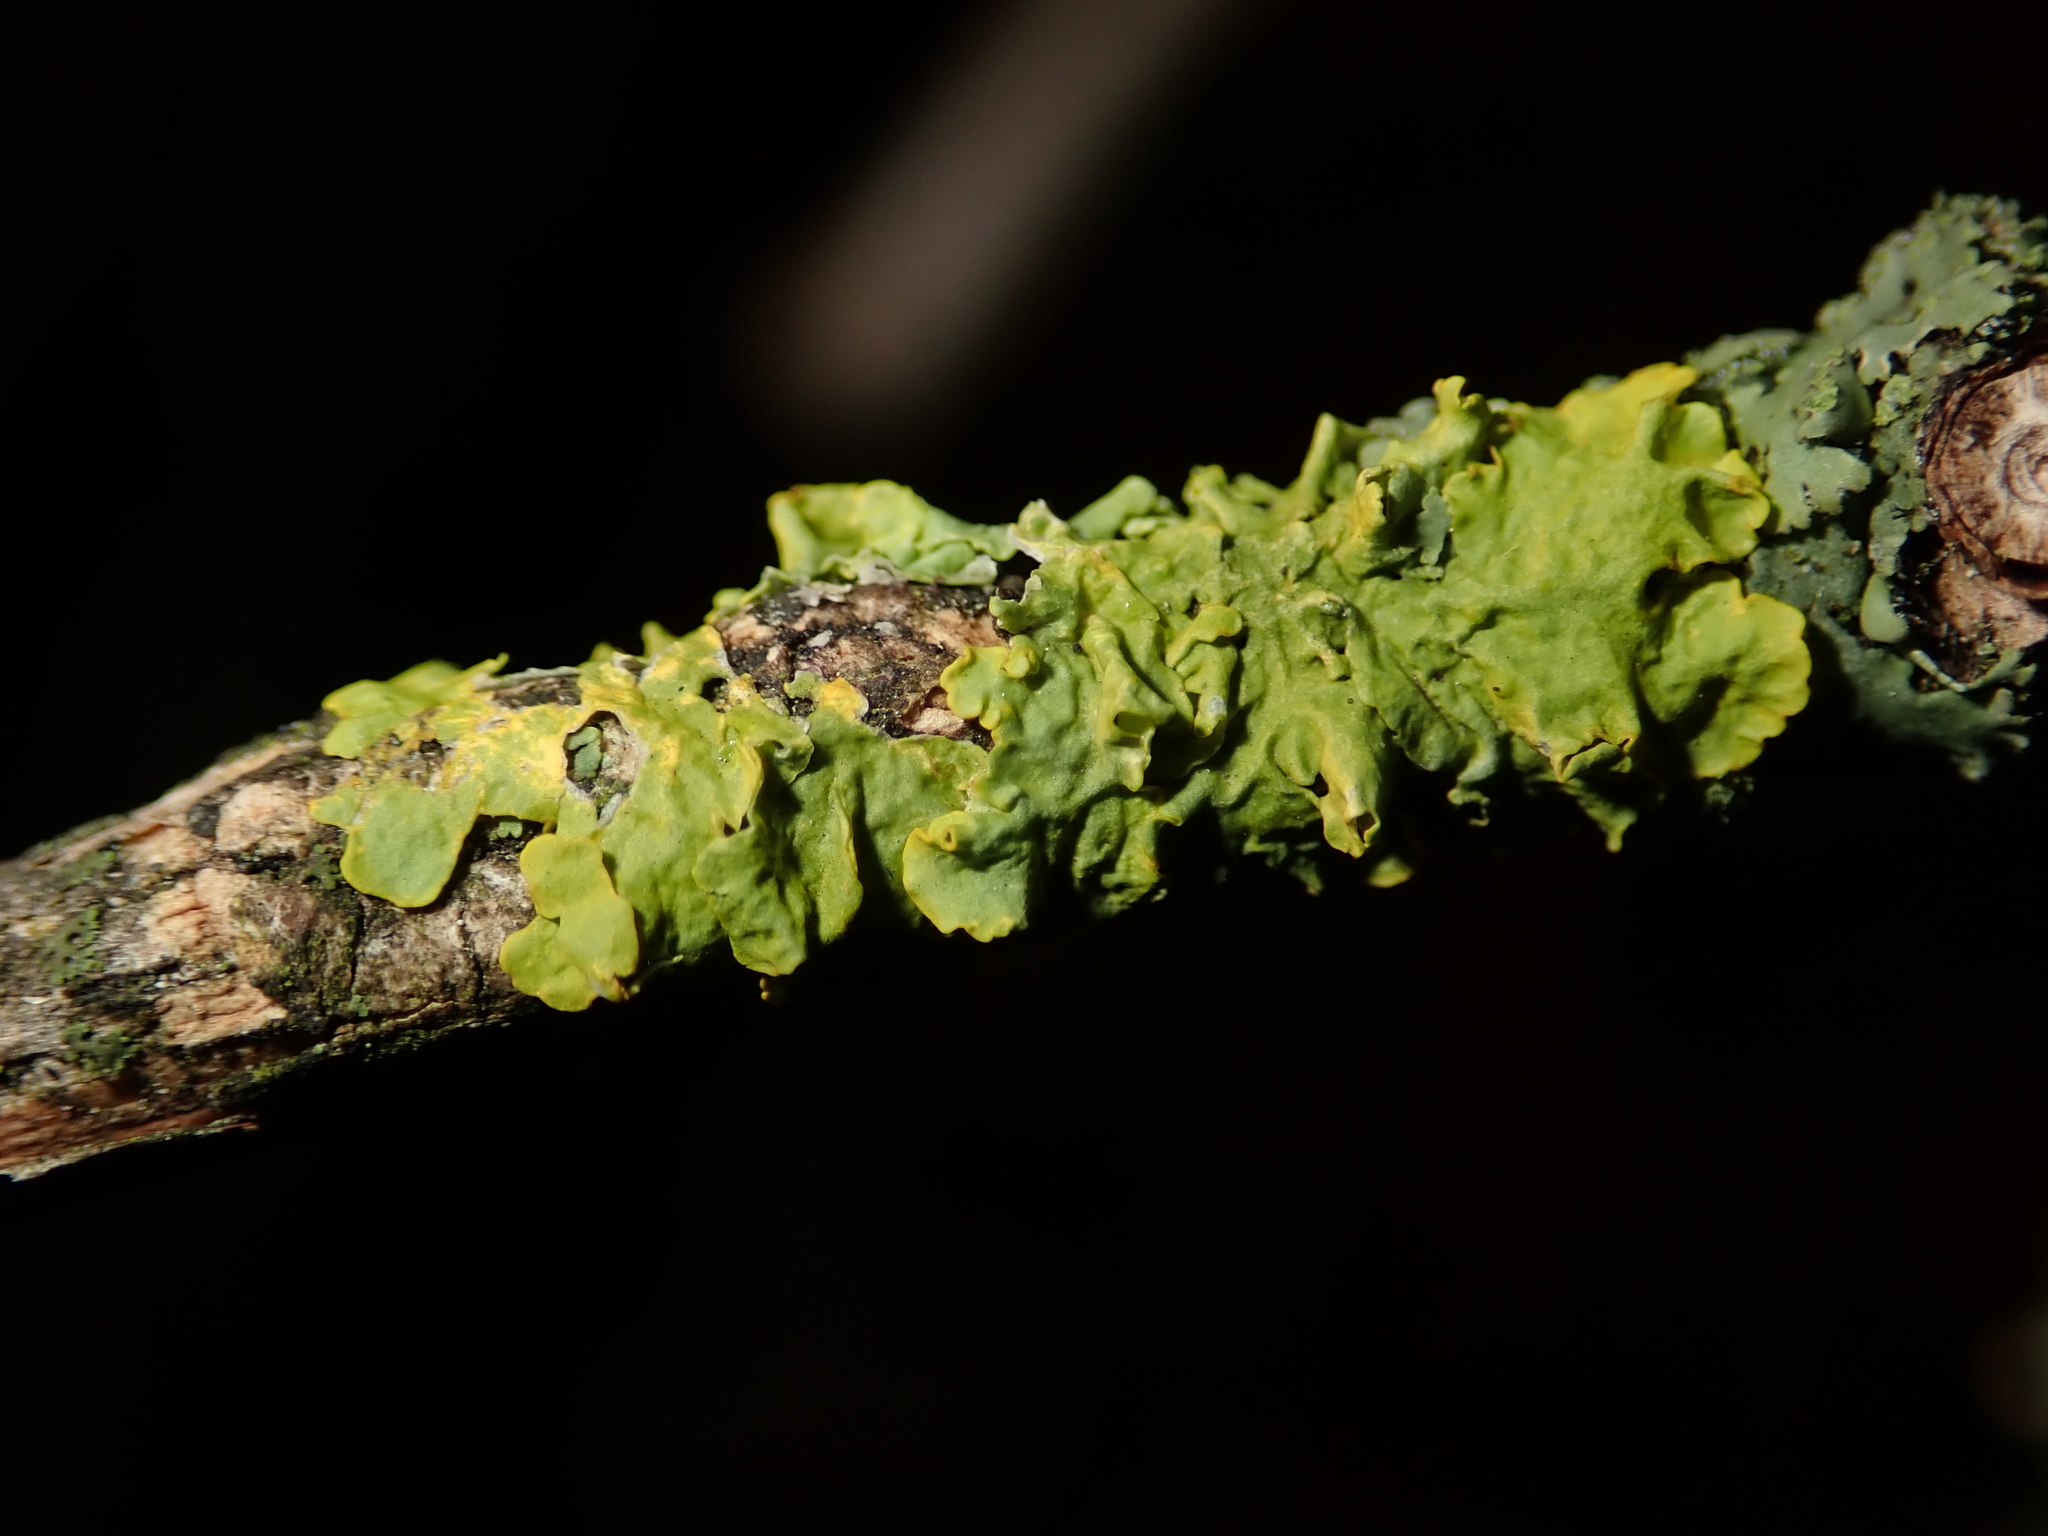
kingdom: Fungi
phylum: Ascomycota
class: Lecanoromycetes
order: Teloschistales
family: Teloschistaceae
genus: Xanthoria
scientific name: Xanthoria parietina
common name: Common orange lichen
